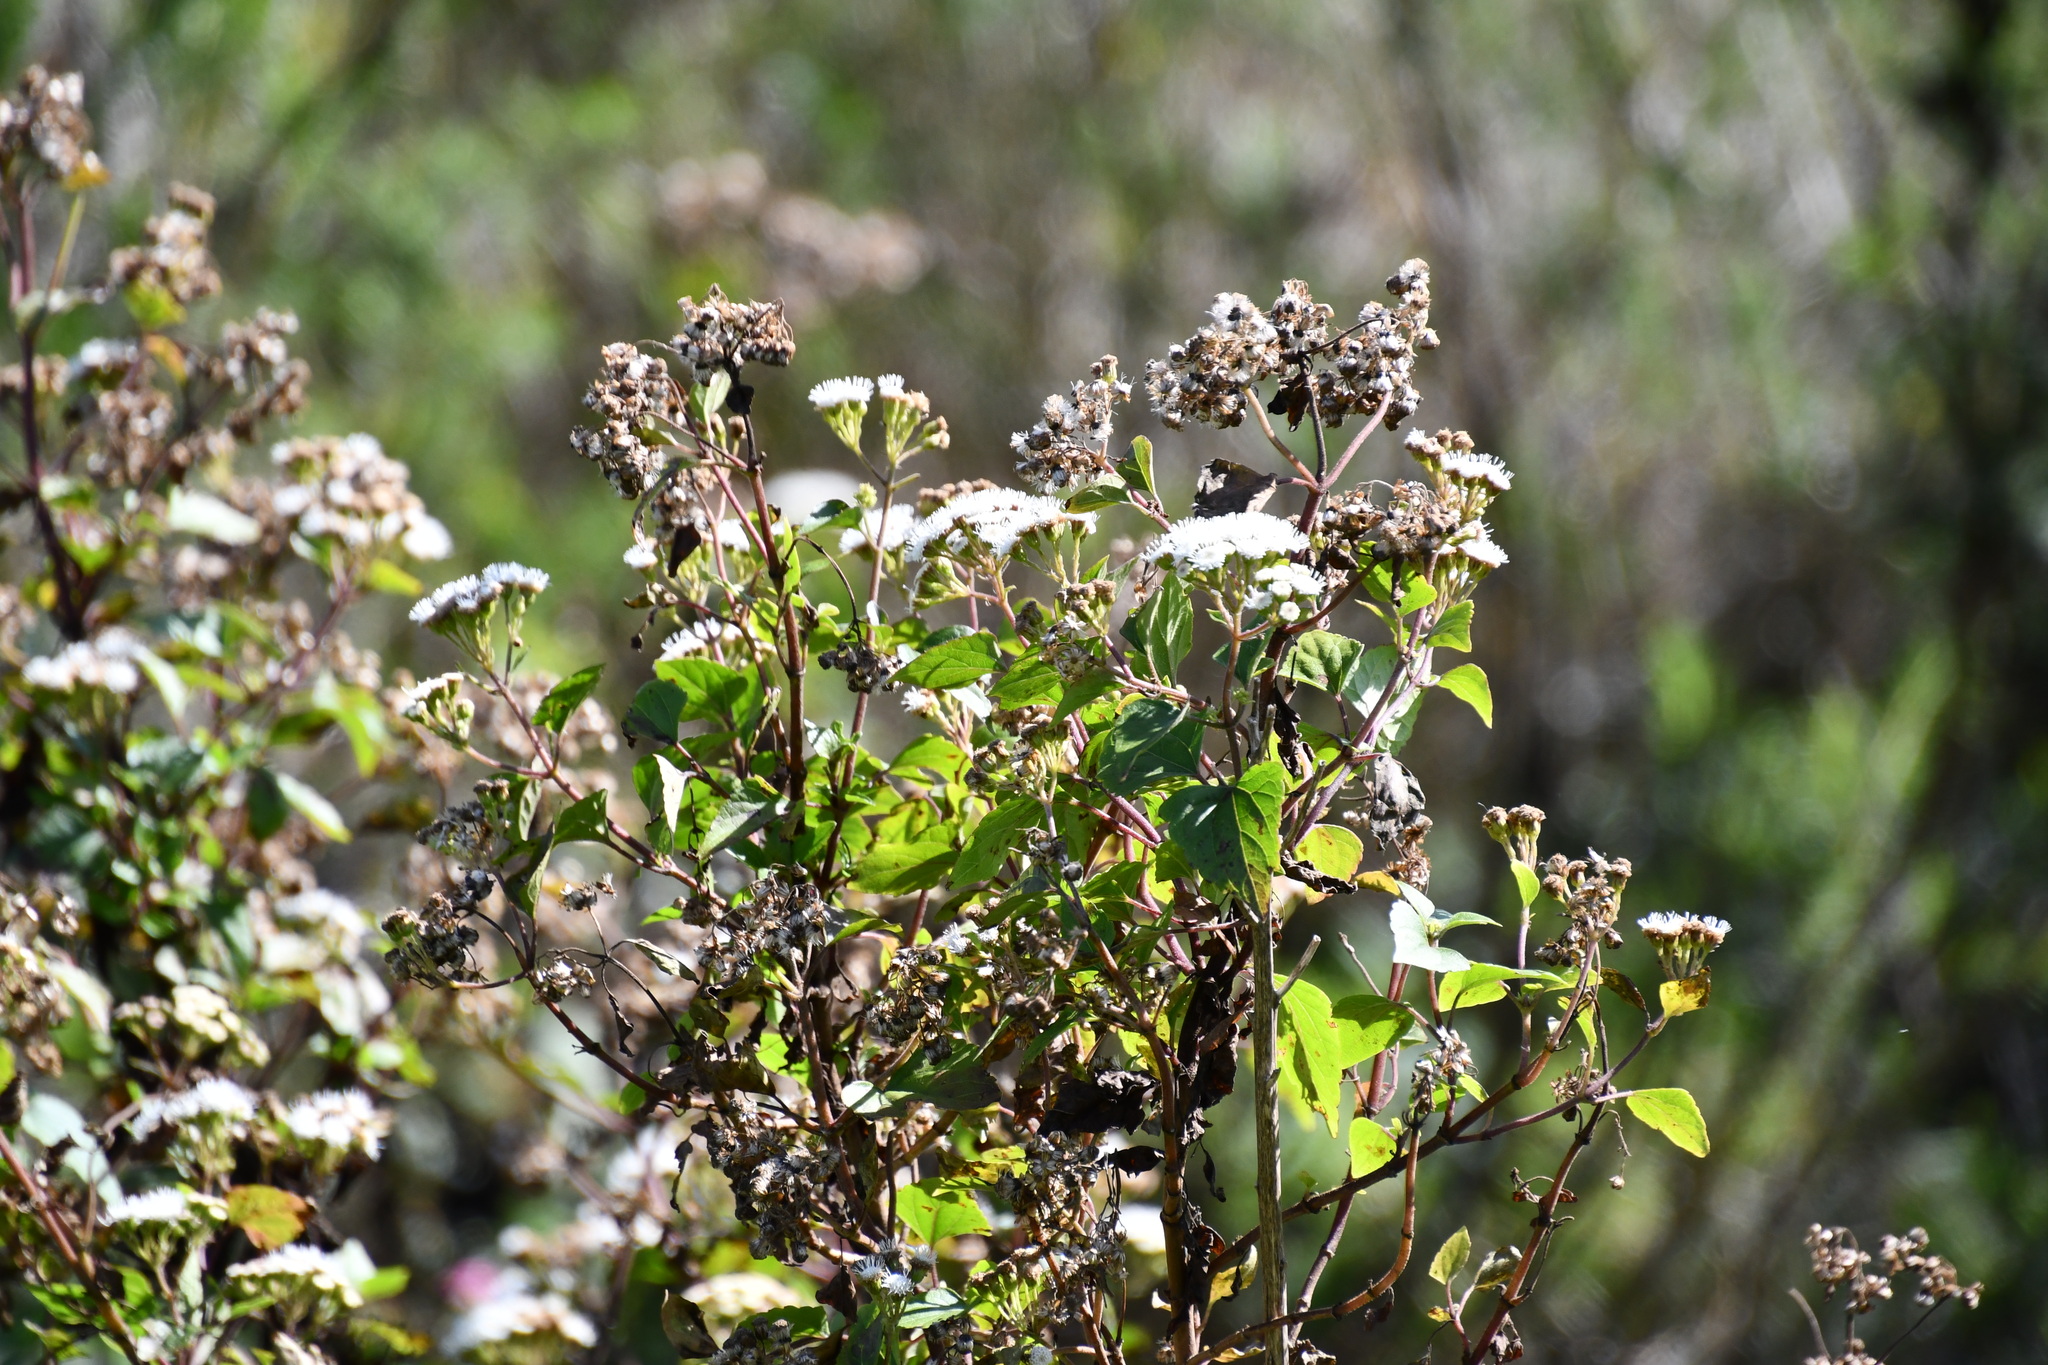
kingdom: Plantae
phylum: Tracheophyta
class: Magnoliopsida
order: Asterales
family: Asteraceae
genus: Ageratina
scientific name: Ageratina adenophora
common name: Sticky snakeroot
